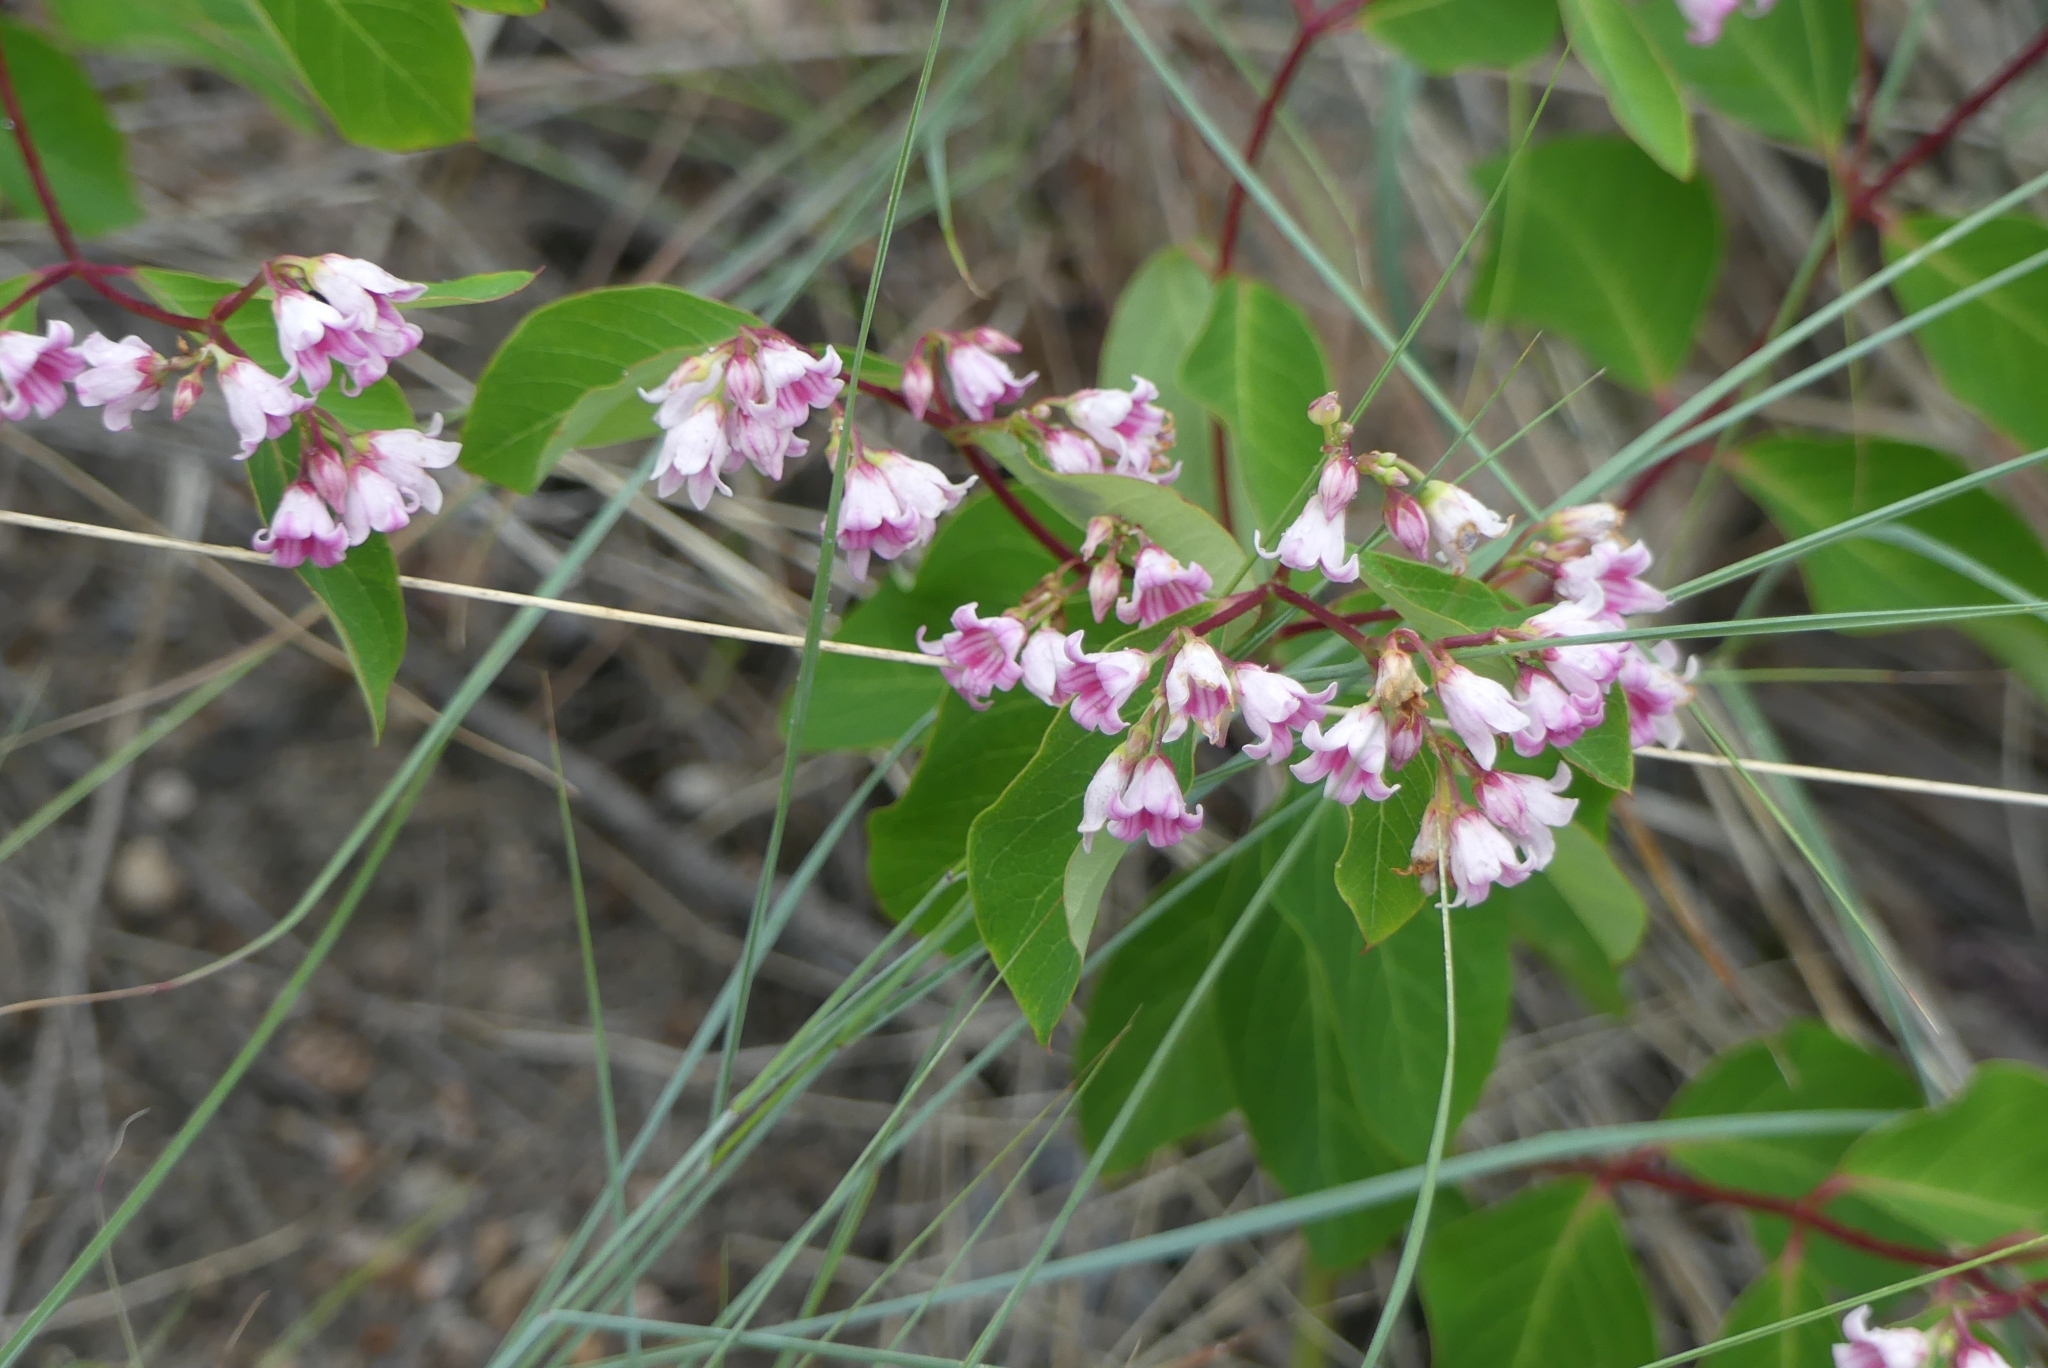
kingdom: Plantae
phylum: Tracheophyta
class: Magnoliopsida
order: Gentianales
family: Apocynaceae
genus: Apocynum
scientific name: Apocynum androsaemifolium
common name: Spreading dogbane
